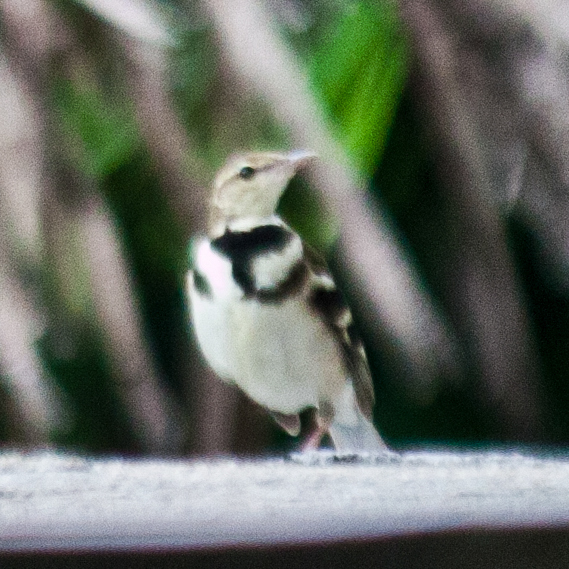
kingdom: Animalia
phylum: Chordata
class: Aves
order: Passeriformes
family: Motacillidae
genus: Dendronanthus
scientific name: Dendronanthus indicus
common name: Forest wagtail
